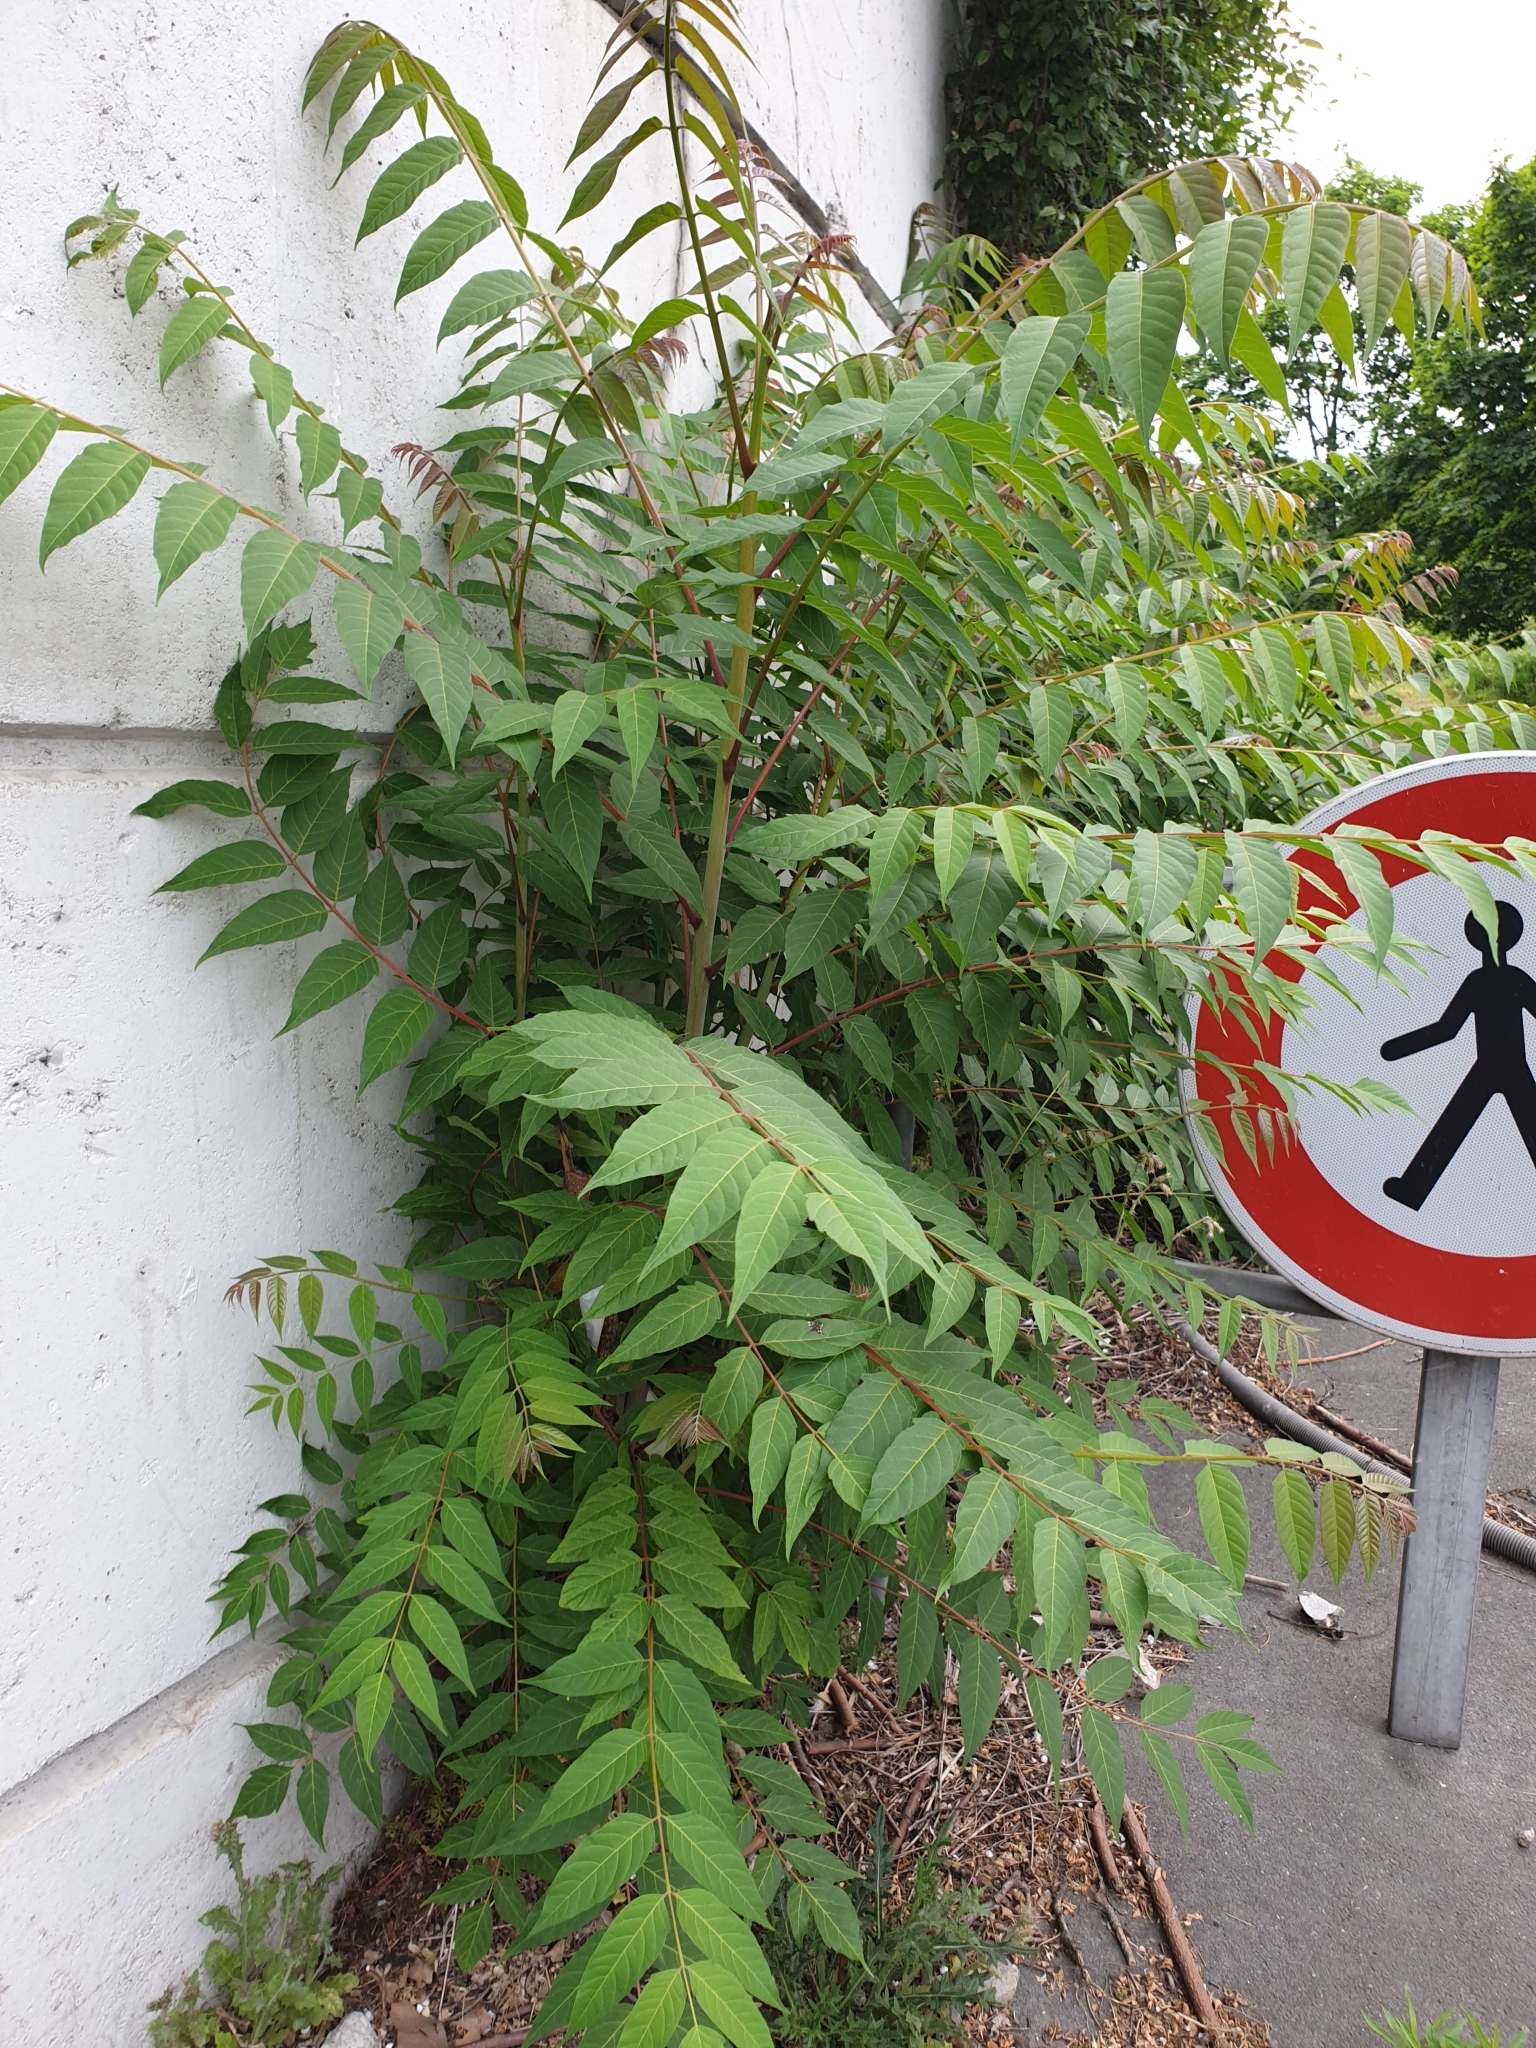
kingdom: Plantae
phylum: Tracheophyta
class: Magnoliopsida
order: Sapindales
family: Simaroubaceae
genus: Ailanthus
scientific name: Ailanthus altissima
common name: Tree-of-heaven
